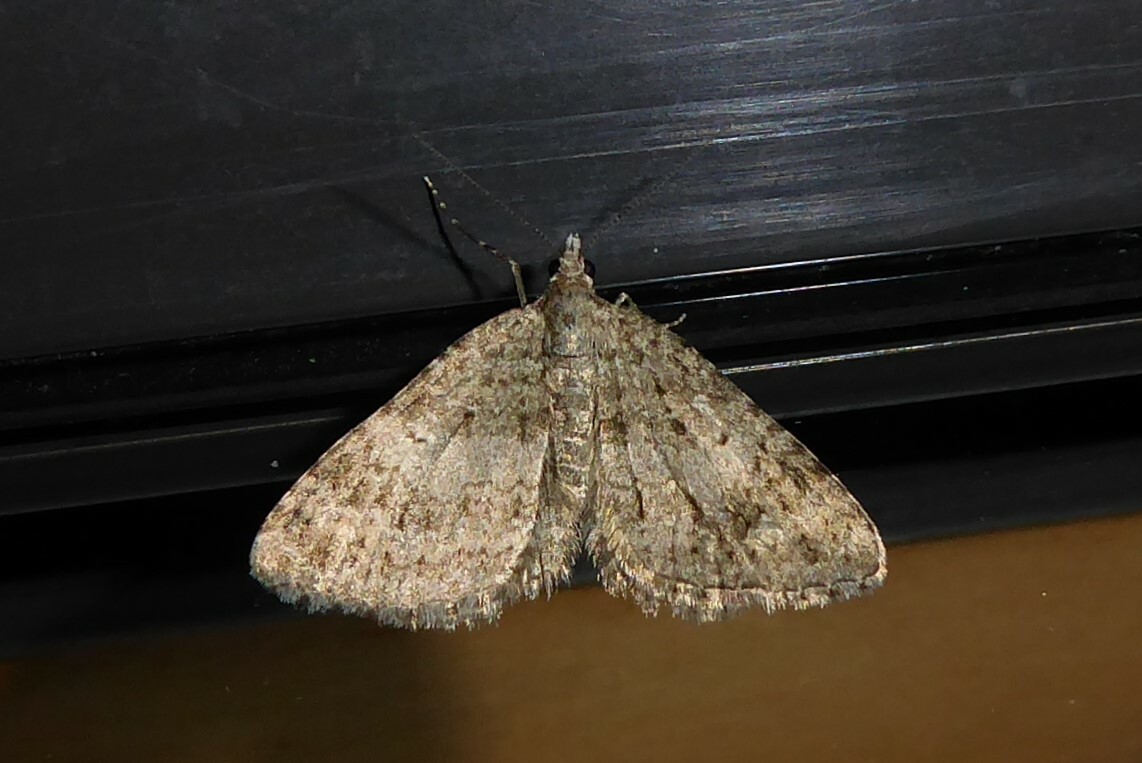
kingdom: Animalia
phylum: Arthropoda
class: Insecta
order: Lepidoptera
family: Geometridae
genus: Helastia
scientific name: Helastia corcularia
